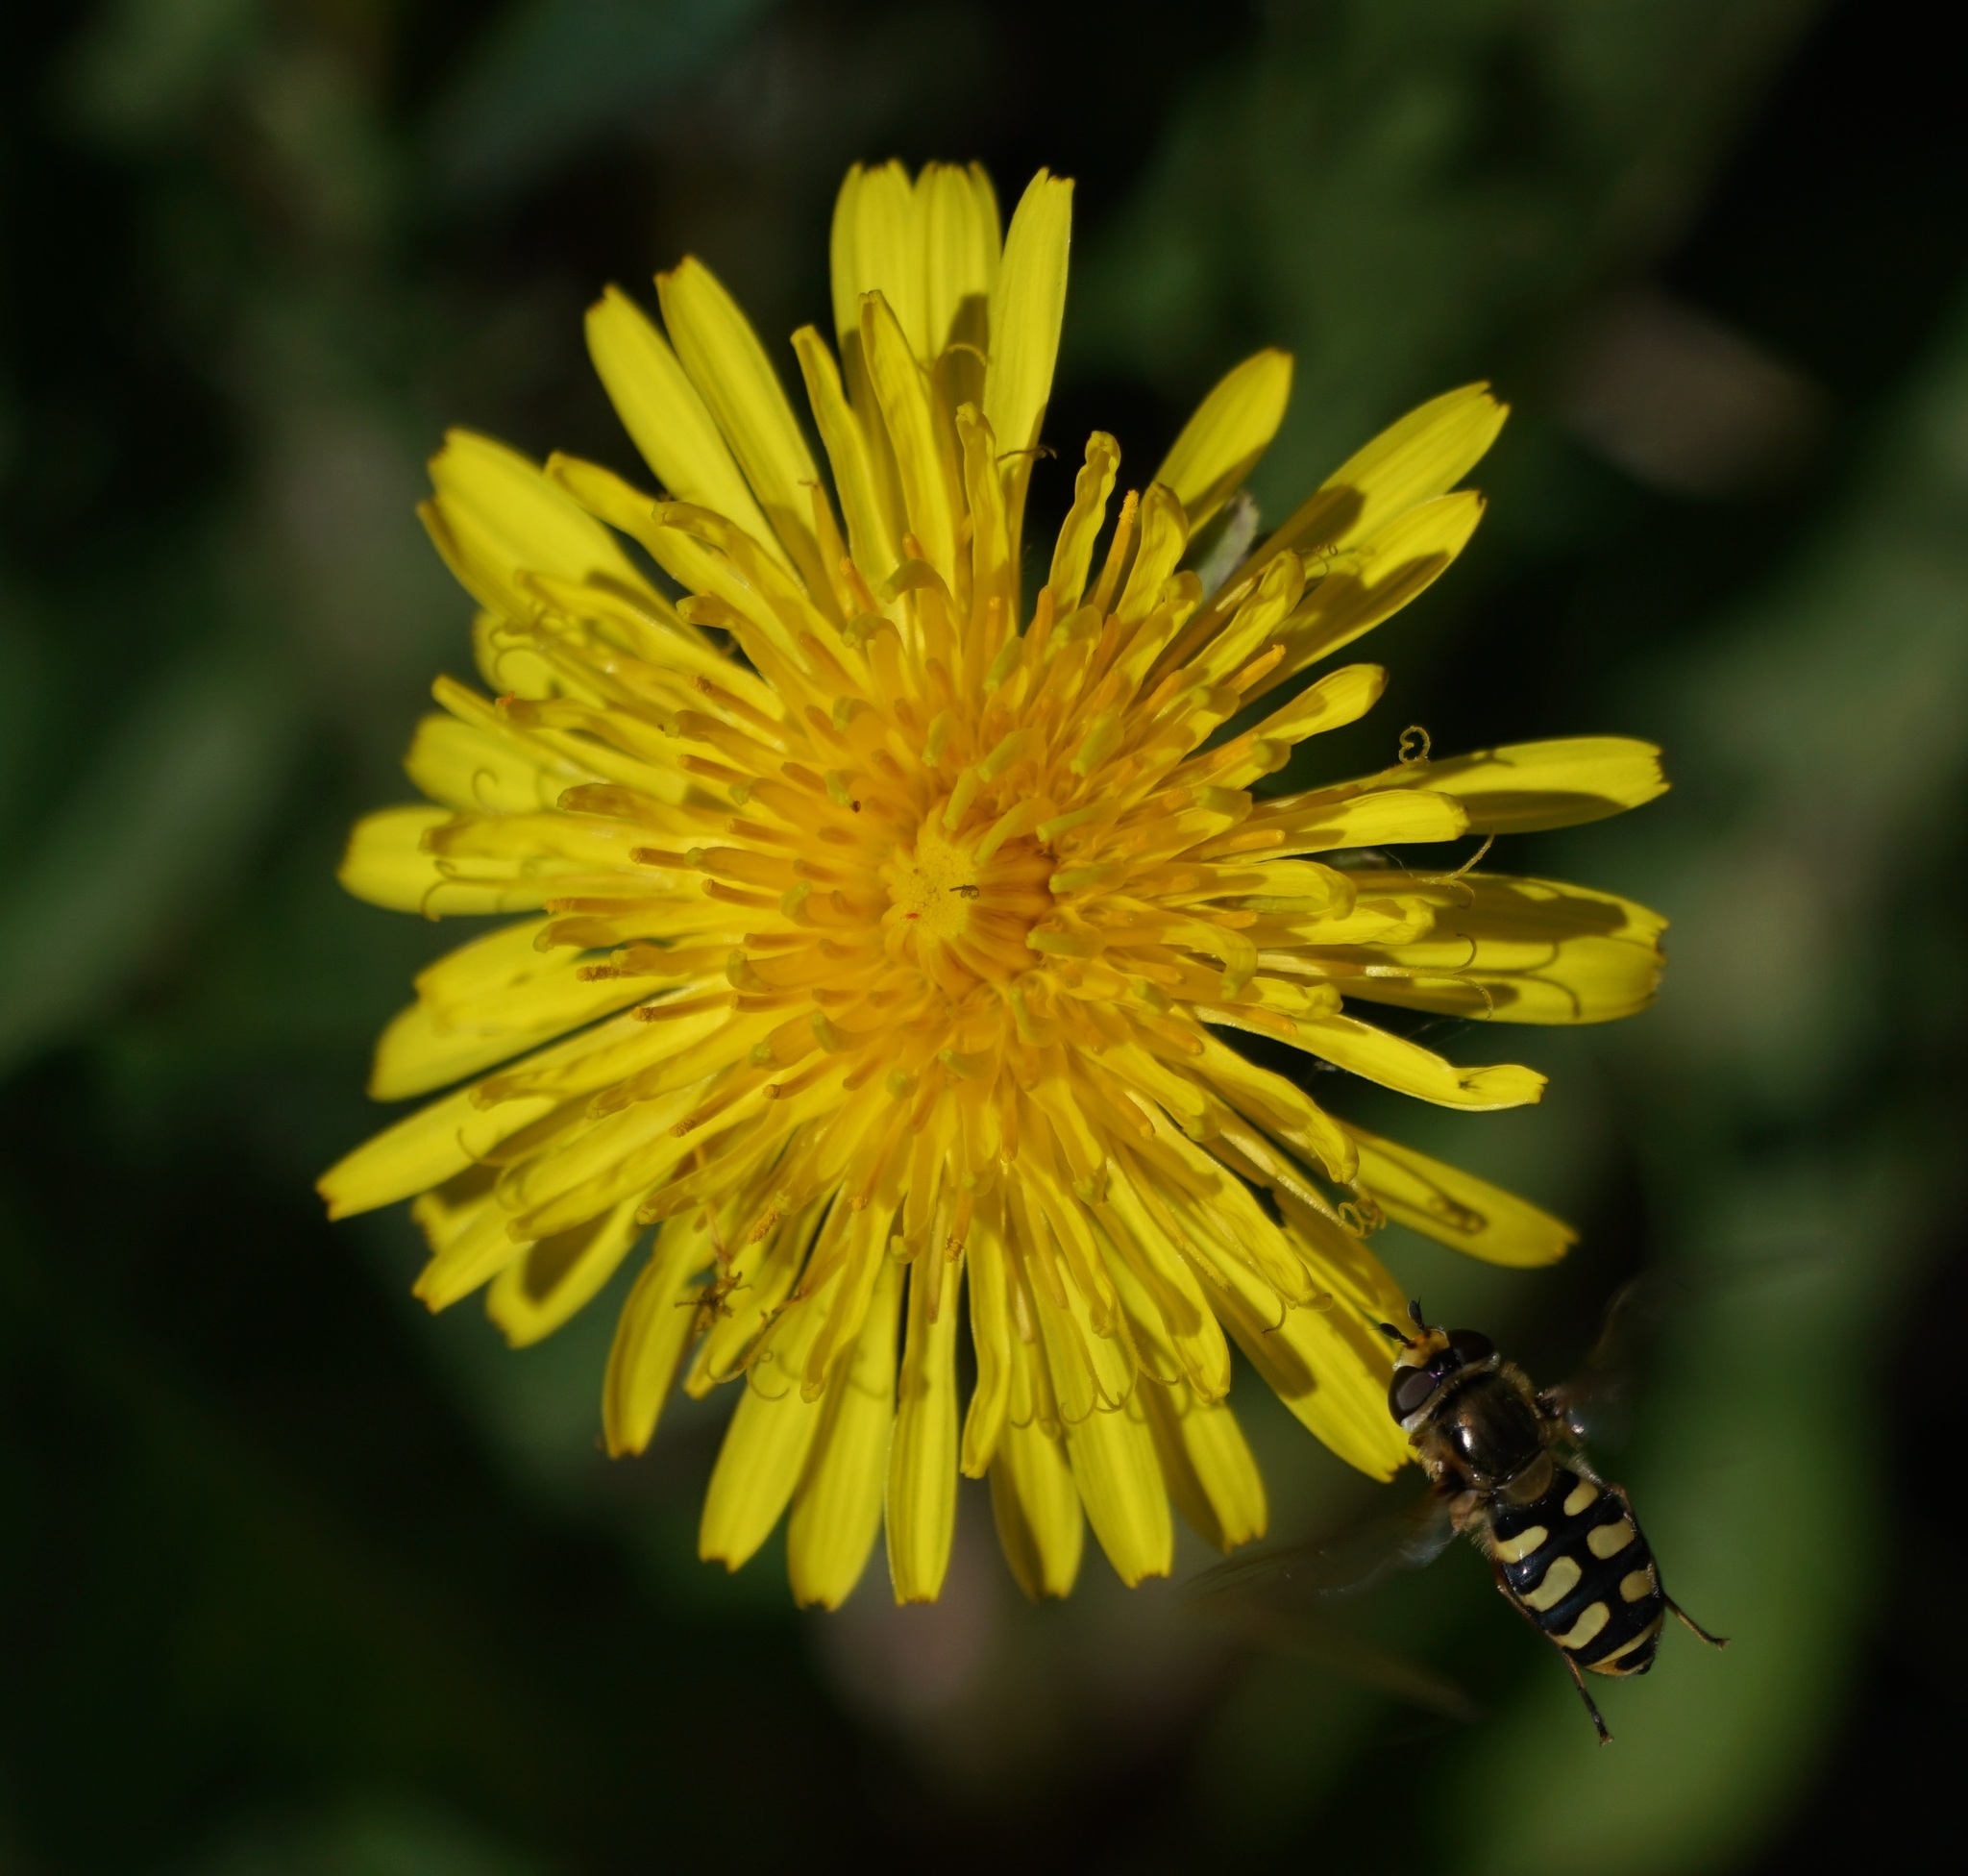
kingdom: Animalia
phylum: Arthropoda
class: Insecta
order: Diptera
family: Syrphidae
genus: Eupeodes
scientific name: Eupeodes corollae
